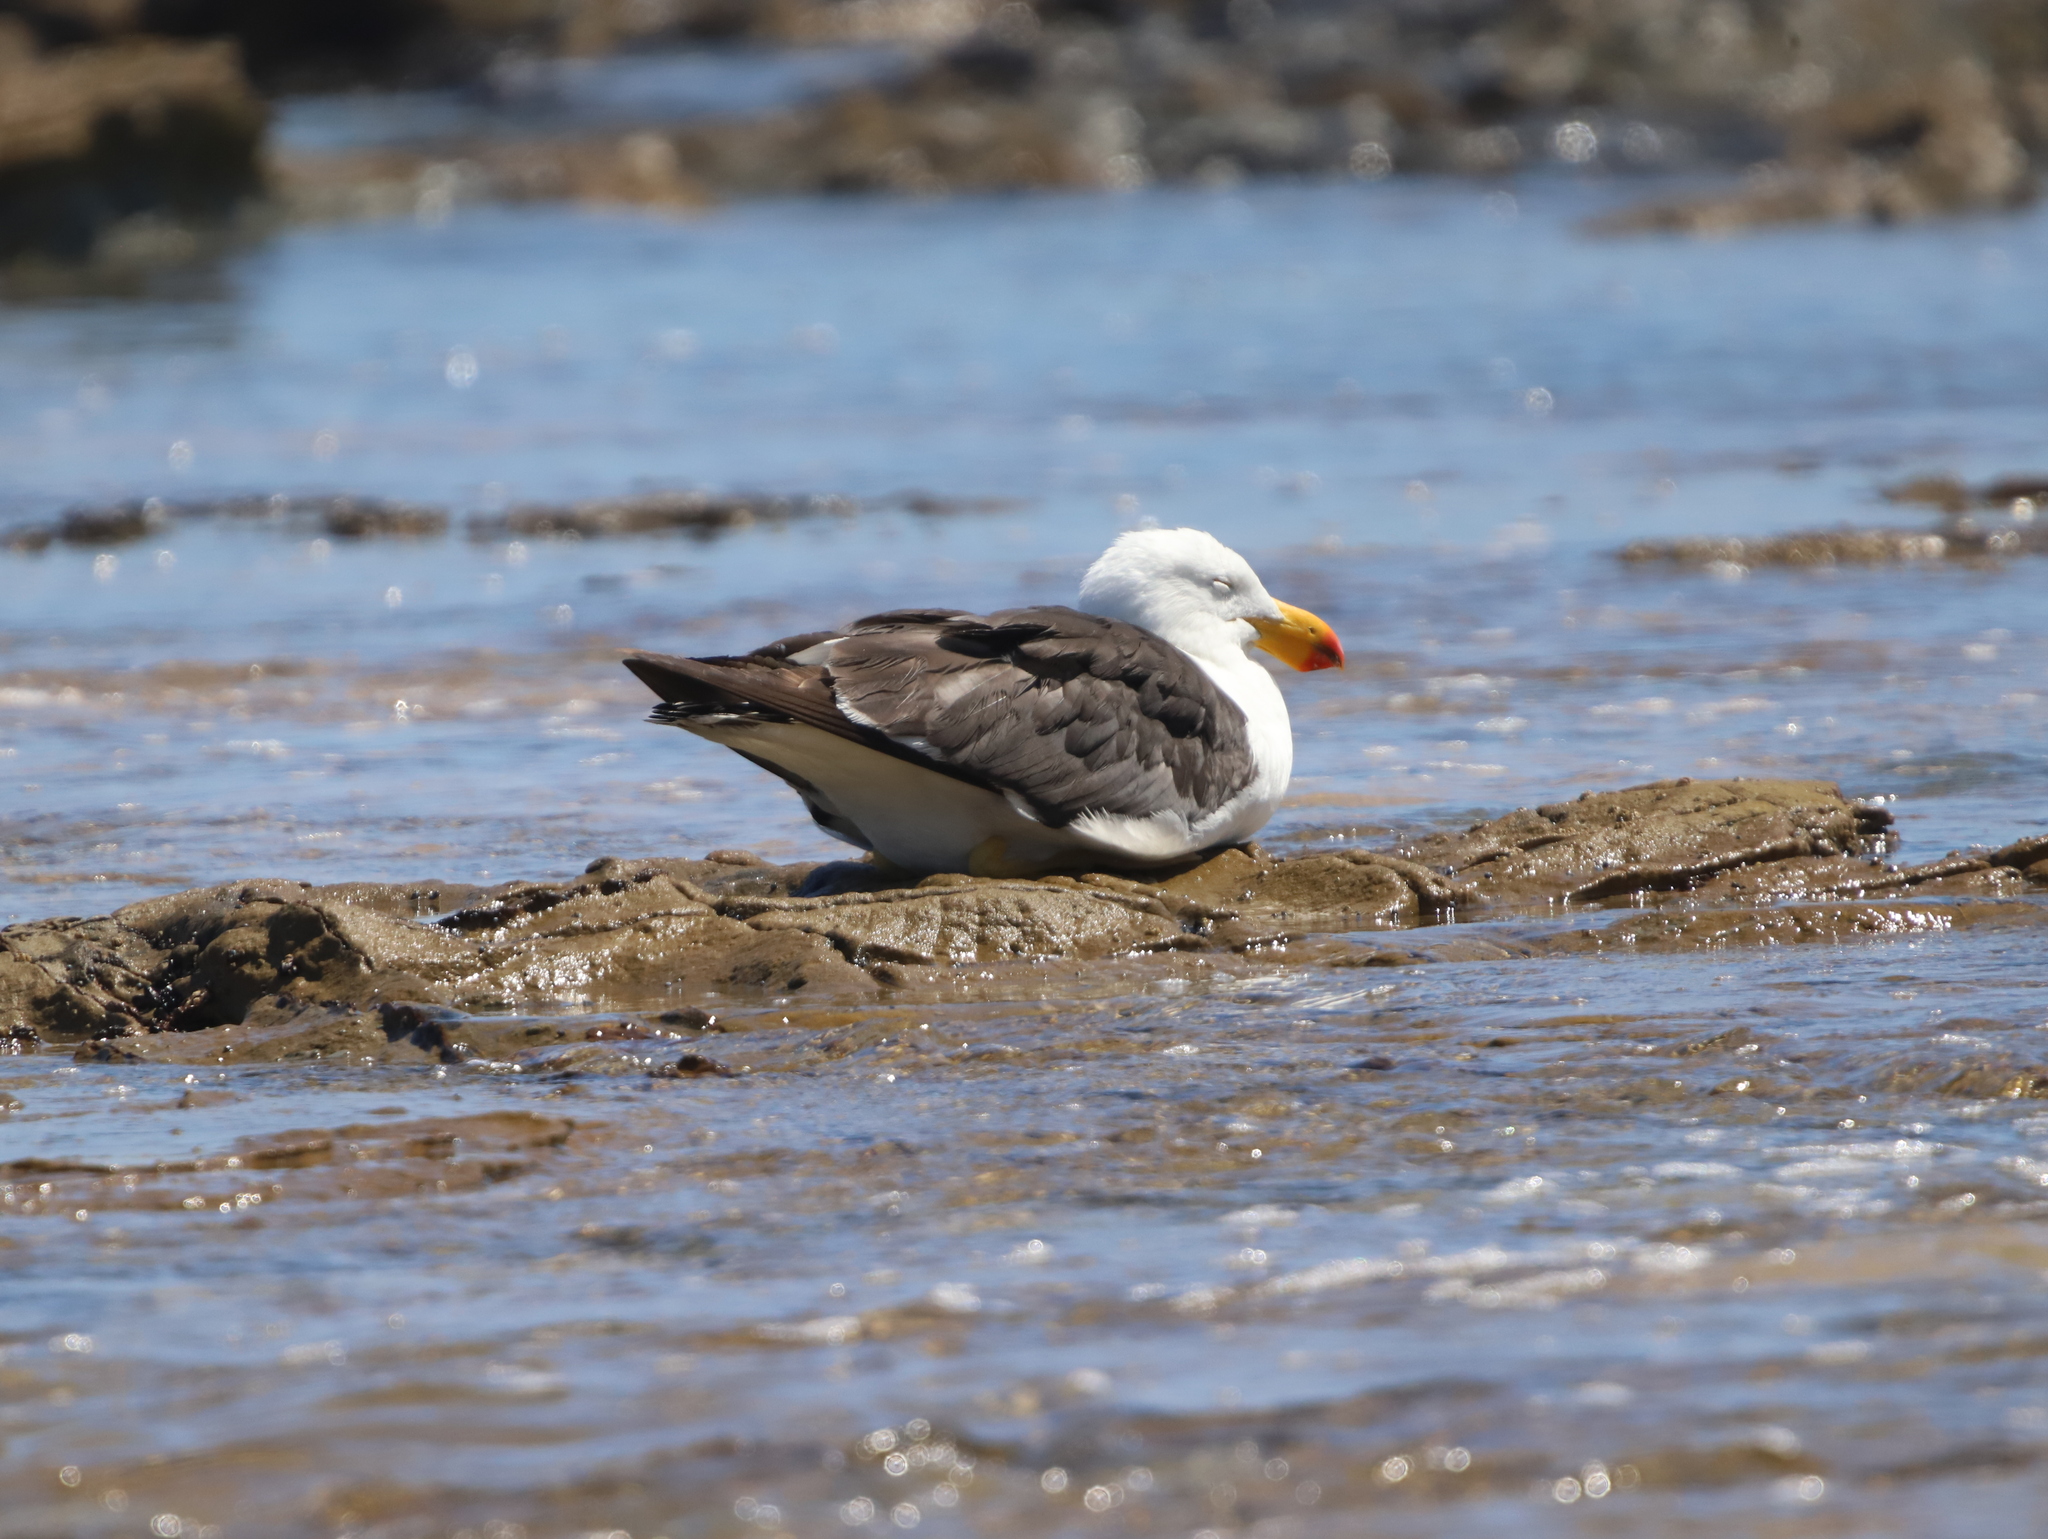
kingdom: Animalia
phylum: Chordata
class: Aves
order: Charadriiformes
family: Laridae
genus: Larus
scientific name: Larus pacificus
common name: Pacific gull
